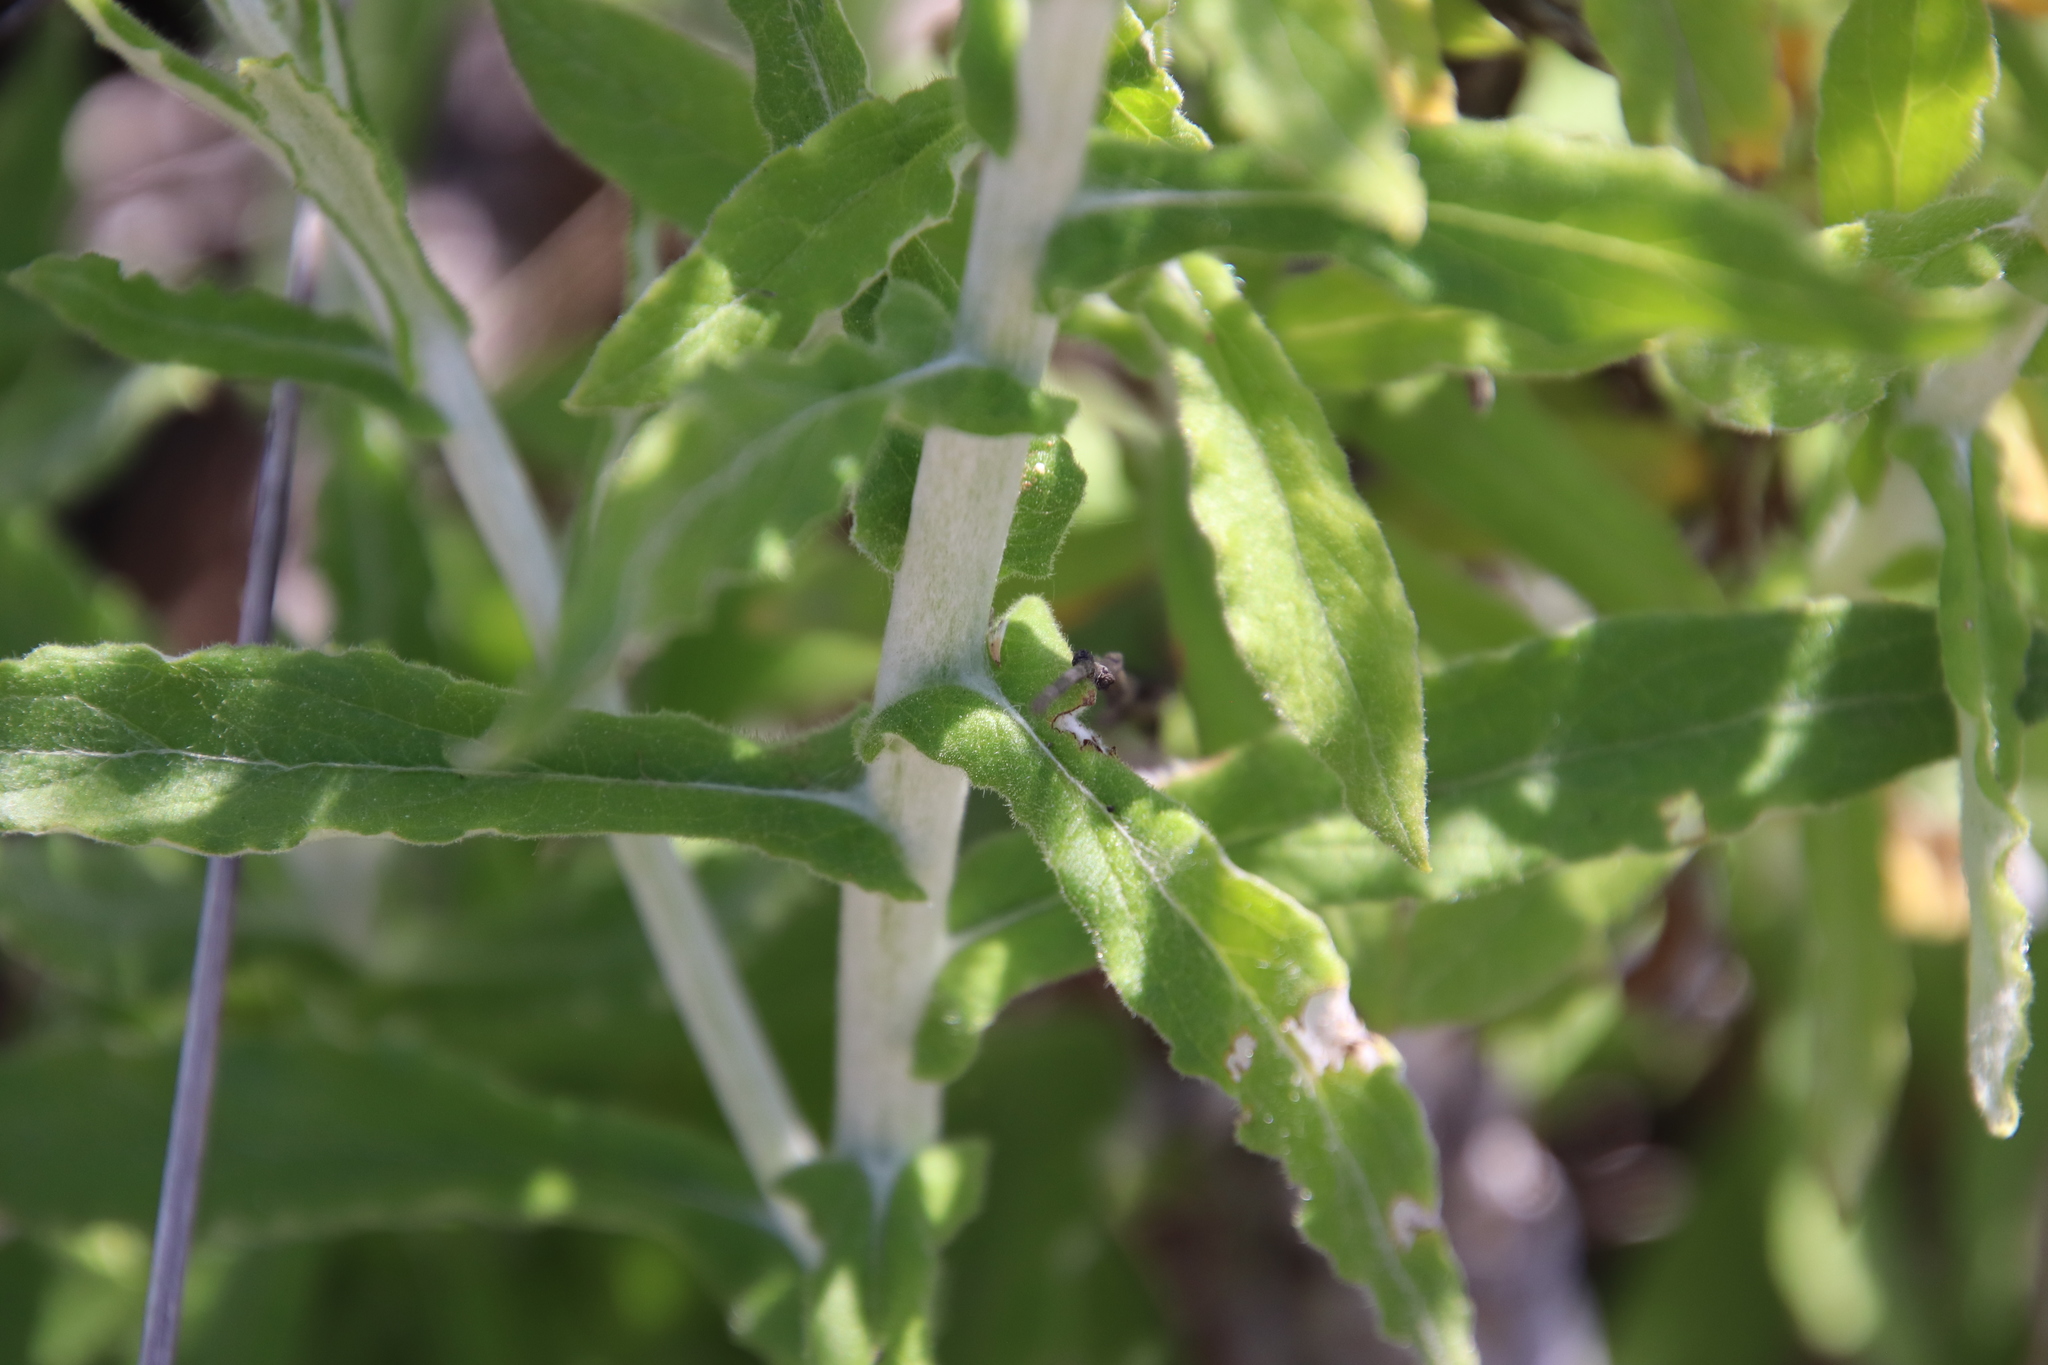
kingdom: Plantae
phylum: Tracheophyta
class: Magnoliopsida
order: Asterales
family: Asteraceae
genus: Pseudognaphalium
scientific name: Pseudognaphalium biolettii
